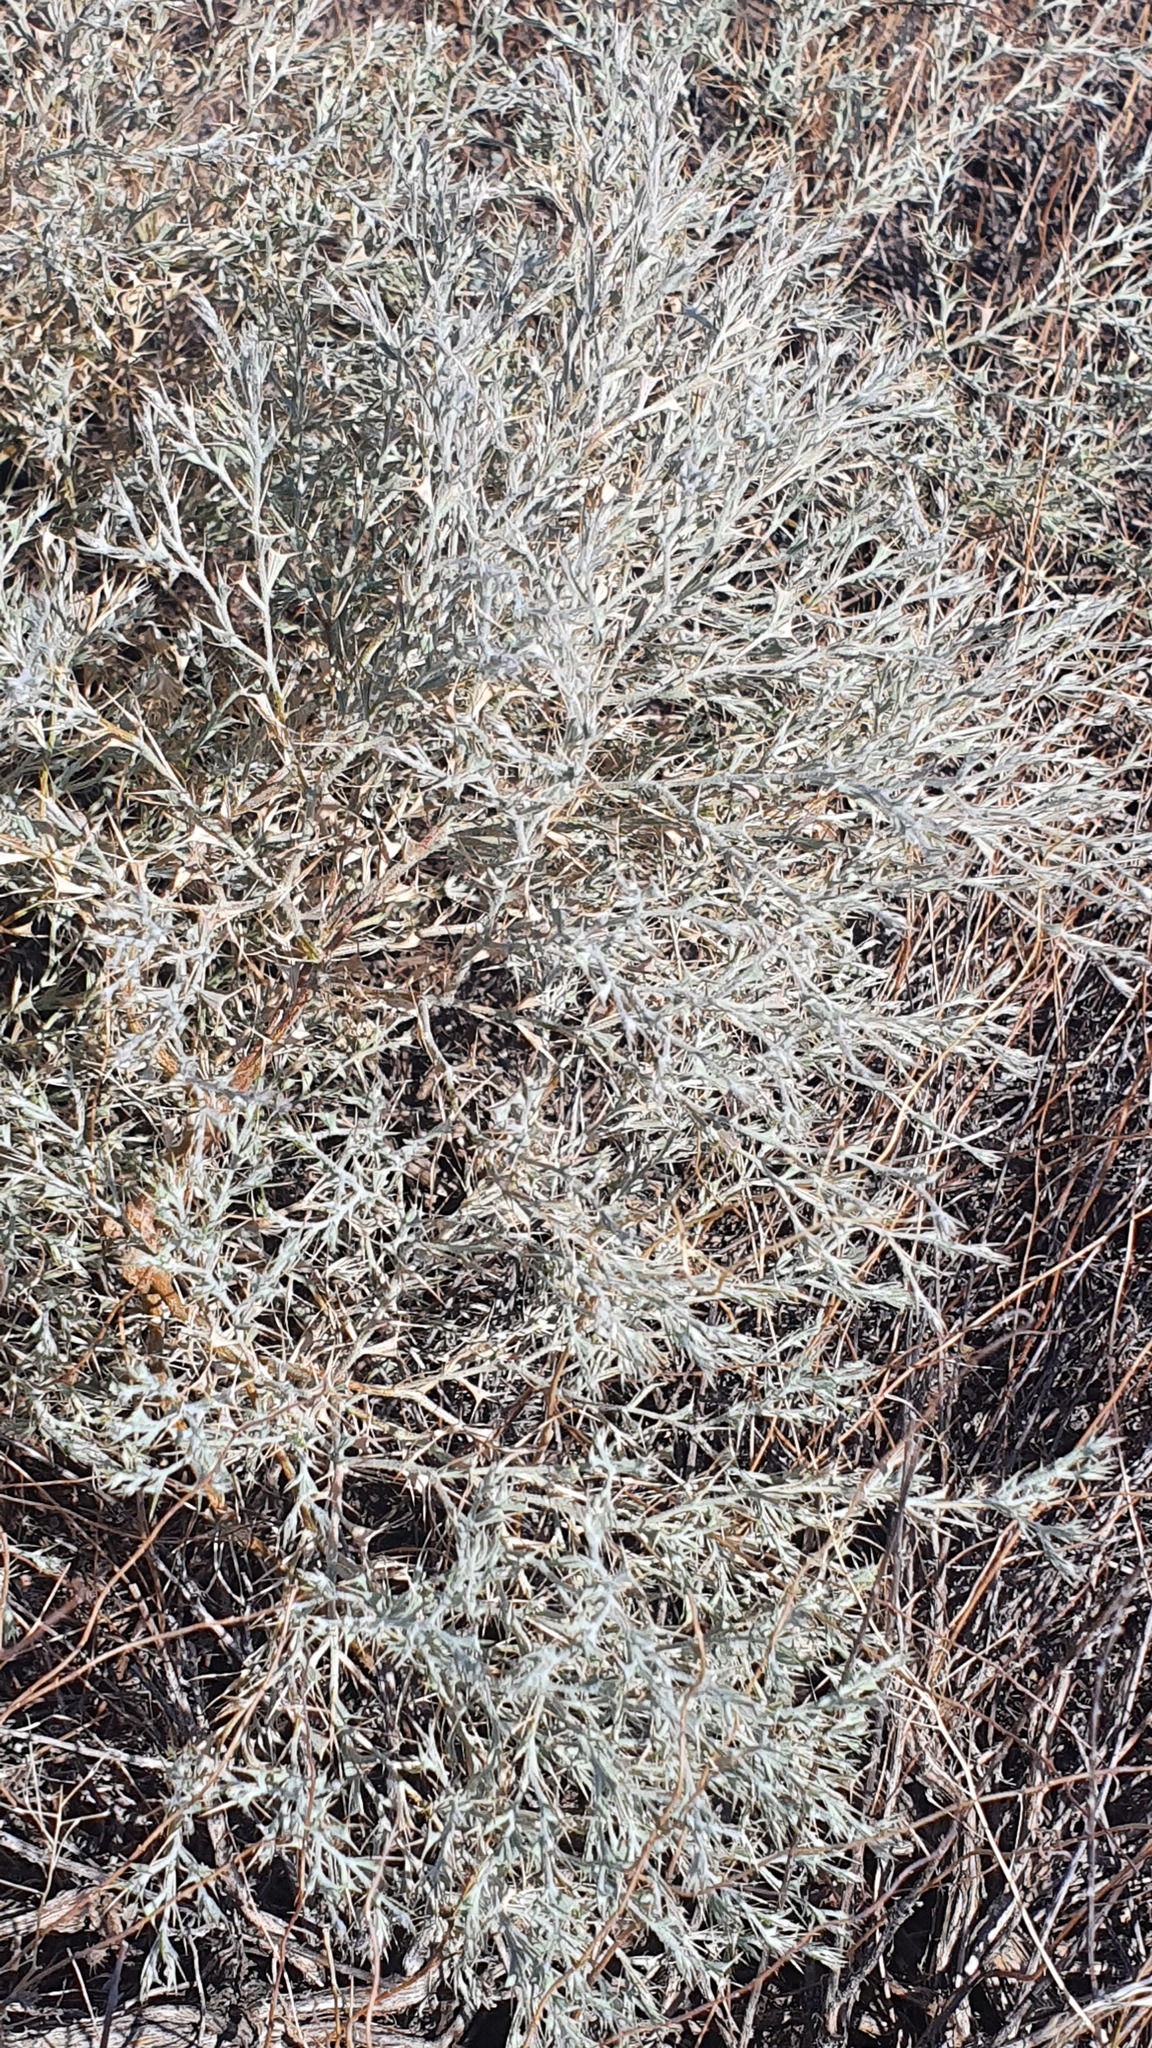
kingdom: Plantae
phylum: Tracheophyta
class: Magnoliopsida
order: Caryophyllales
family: Amaranthaceae
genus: Ceratocarpus
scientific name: Ceratocarpus arenarius
